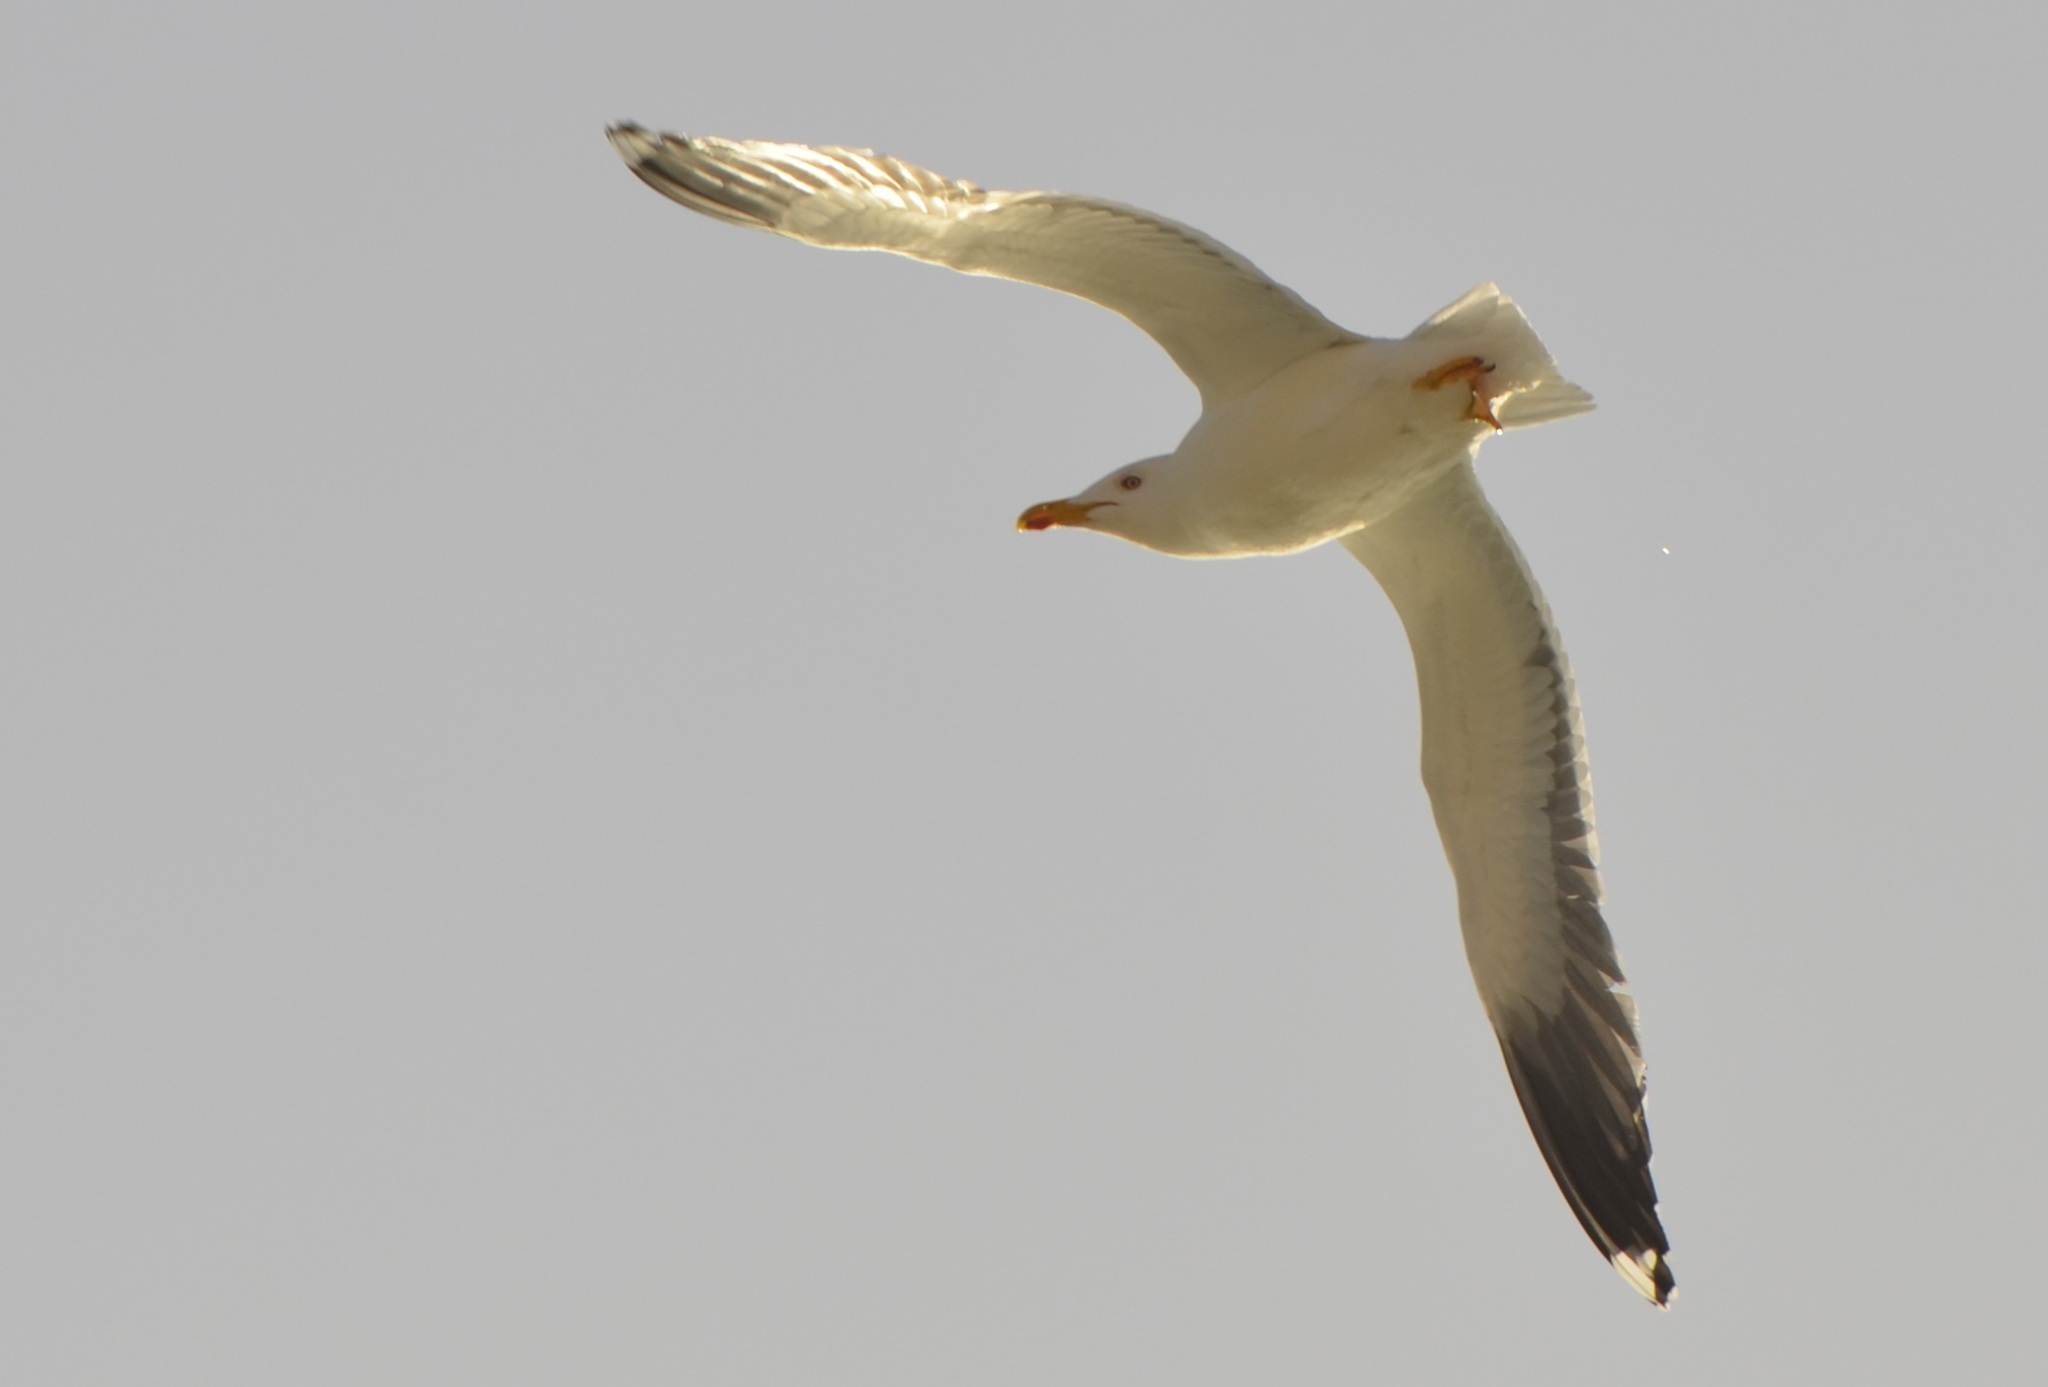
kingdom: Animalia
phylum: Chordata
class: Aves
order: Charadriiformes
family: Laridae
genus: Larus
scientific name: Larus fuscus
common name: Lesser black-backed gull
